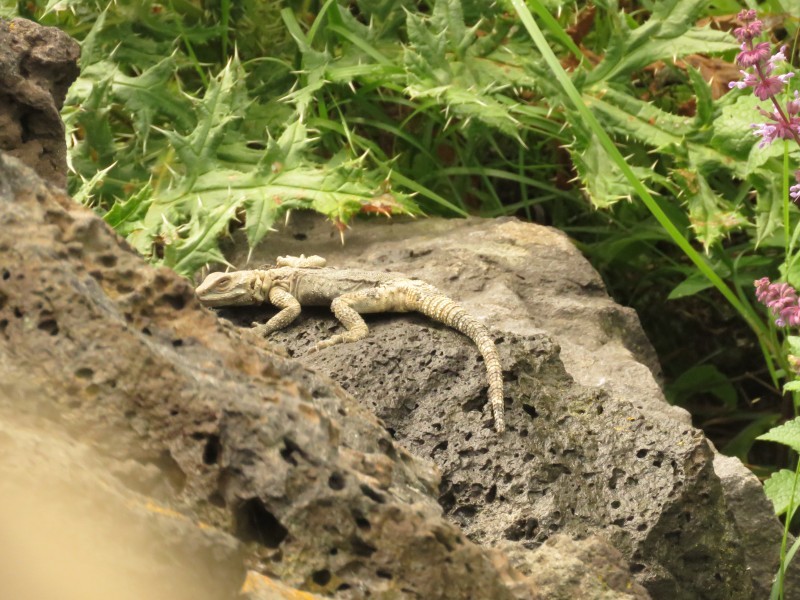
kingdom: Animalia
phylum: Chordata
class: Squamata
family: Agamidae
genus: Paralaudakia
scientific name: Paralaudakia caucasia
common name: Caucasian agama
